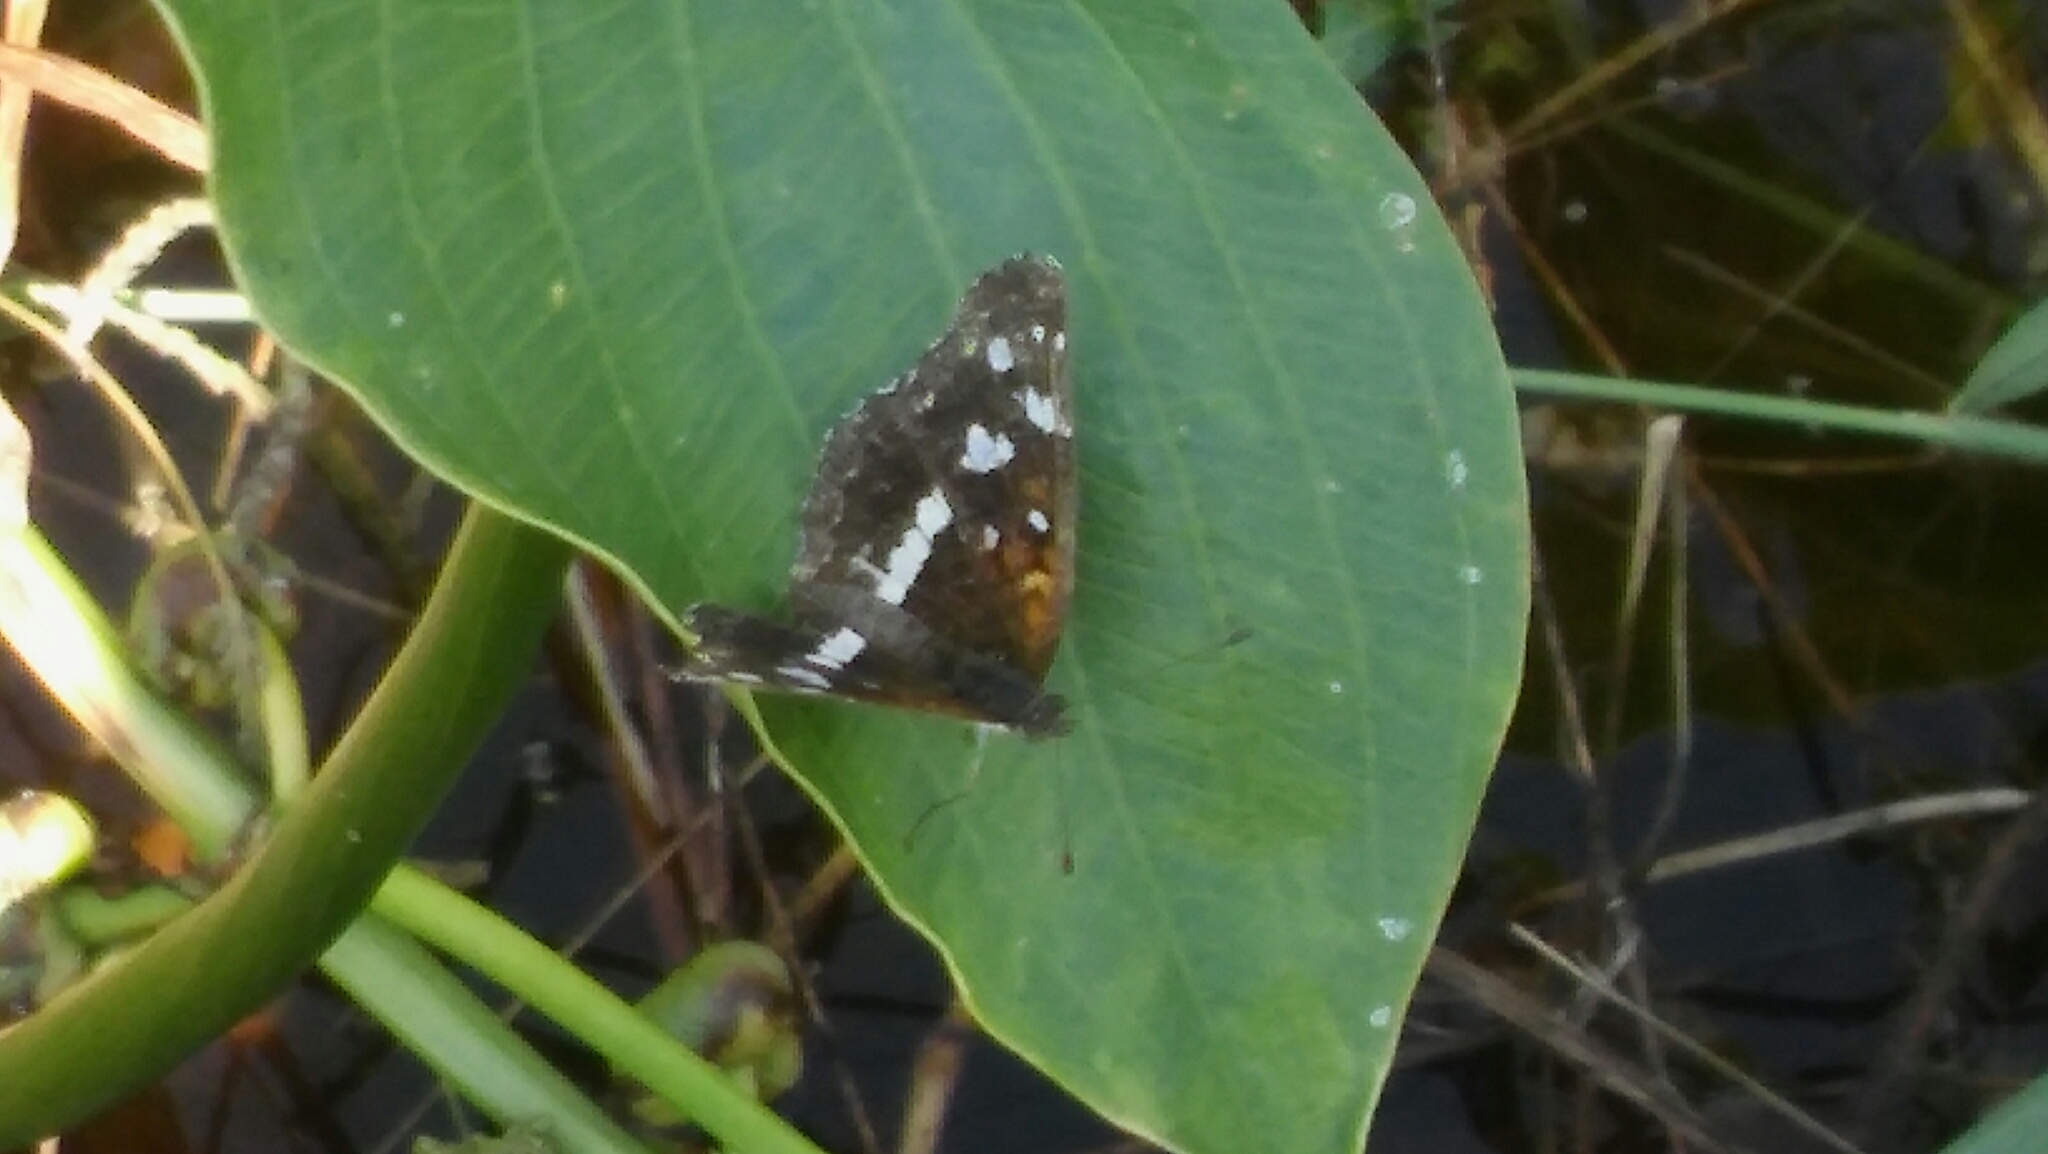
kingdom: Animalia
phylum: Arthropoda
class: Insecta
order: Lepidoptera
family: Nymphalidae
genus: Ortilia
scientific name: Ortilia ithra
